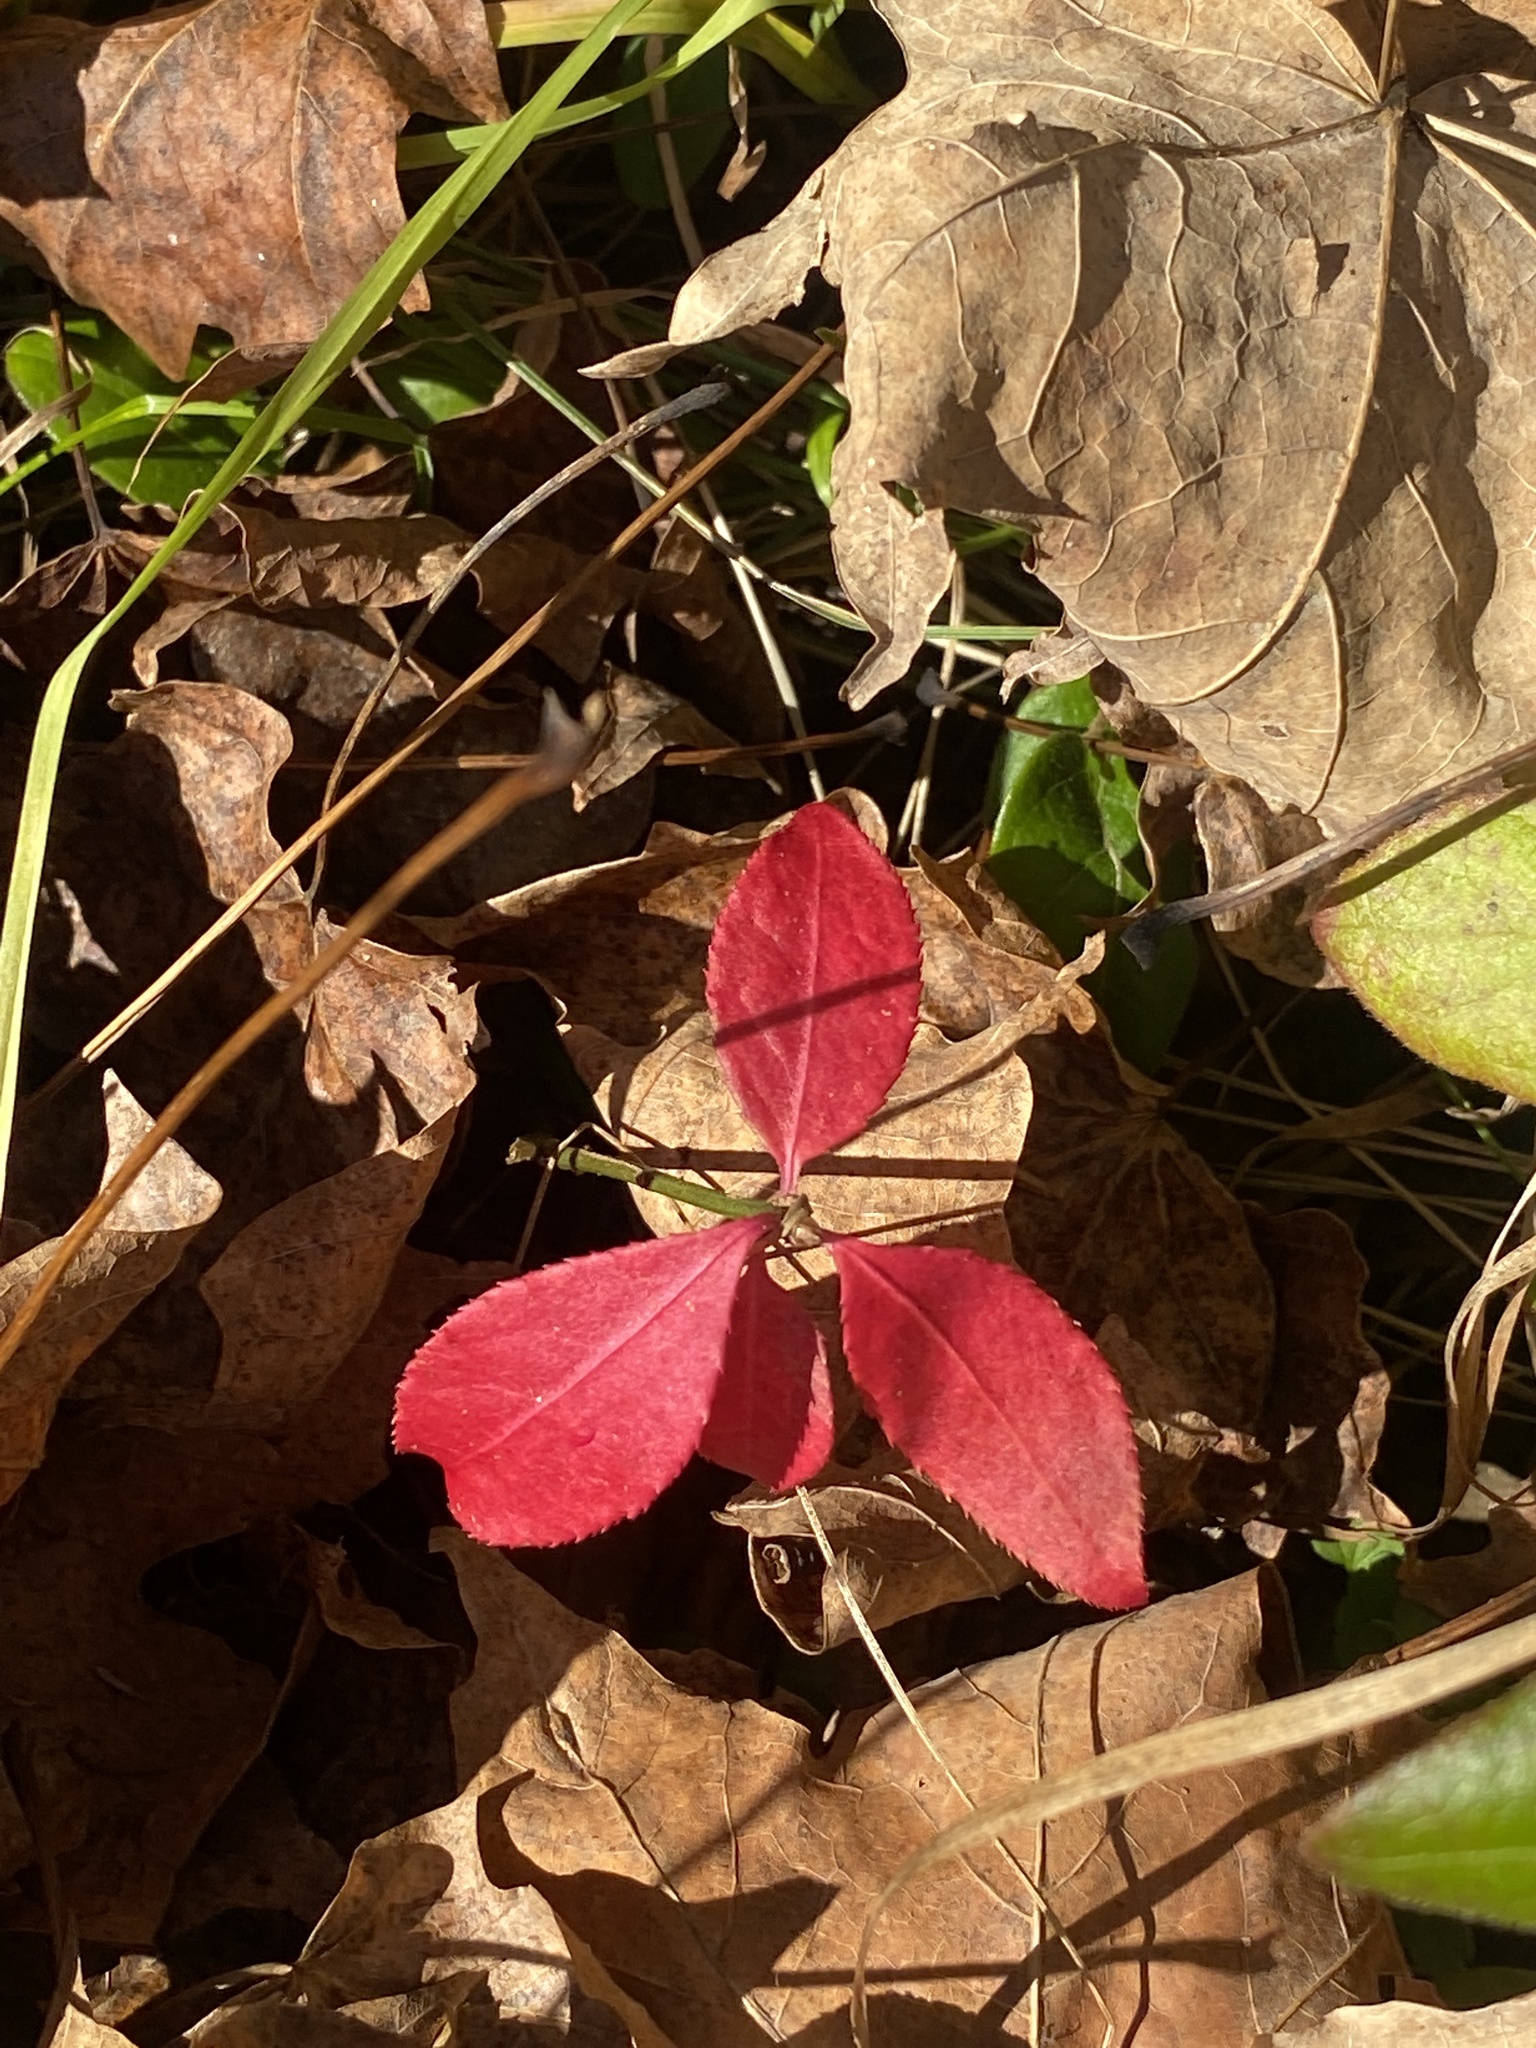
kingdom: Plantae
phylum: Tracheophyta
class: Magnoliopsida
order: Celastrales
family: Celastraceae
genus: Euonymus
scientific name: Euonymus alatus
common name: Winged euonymus
